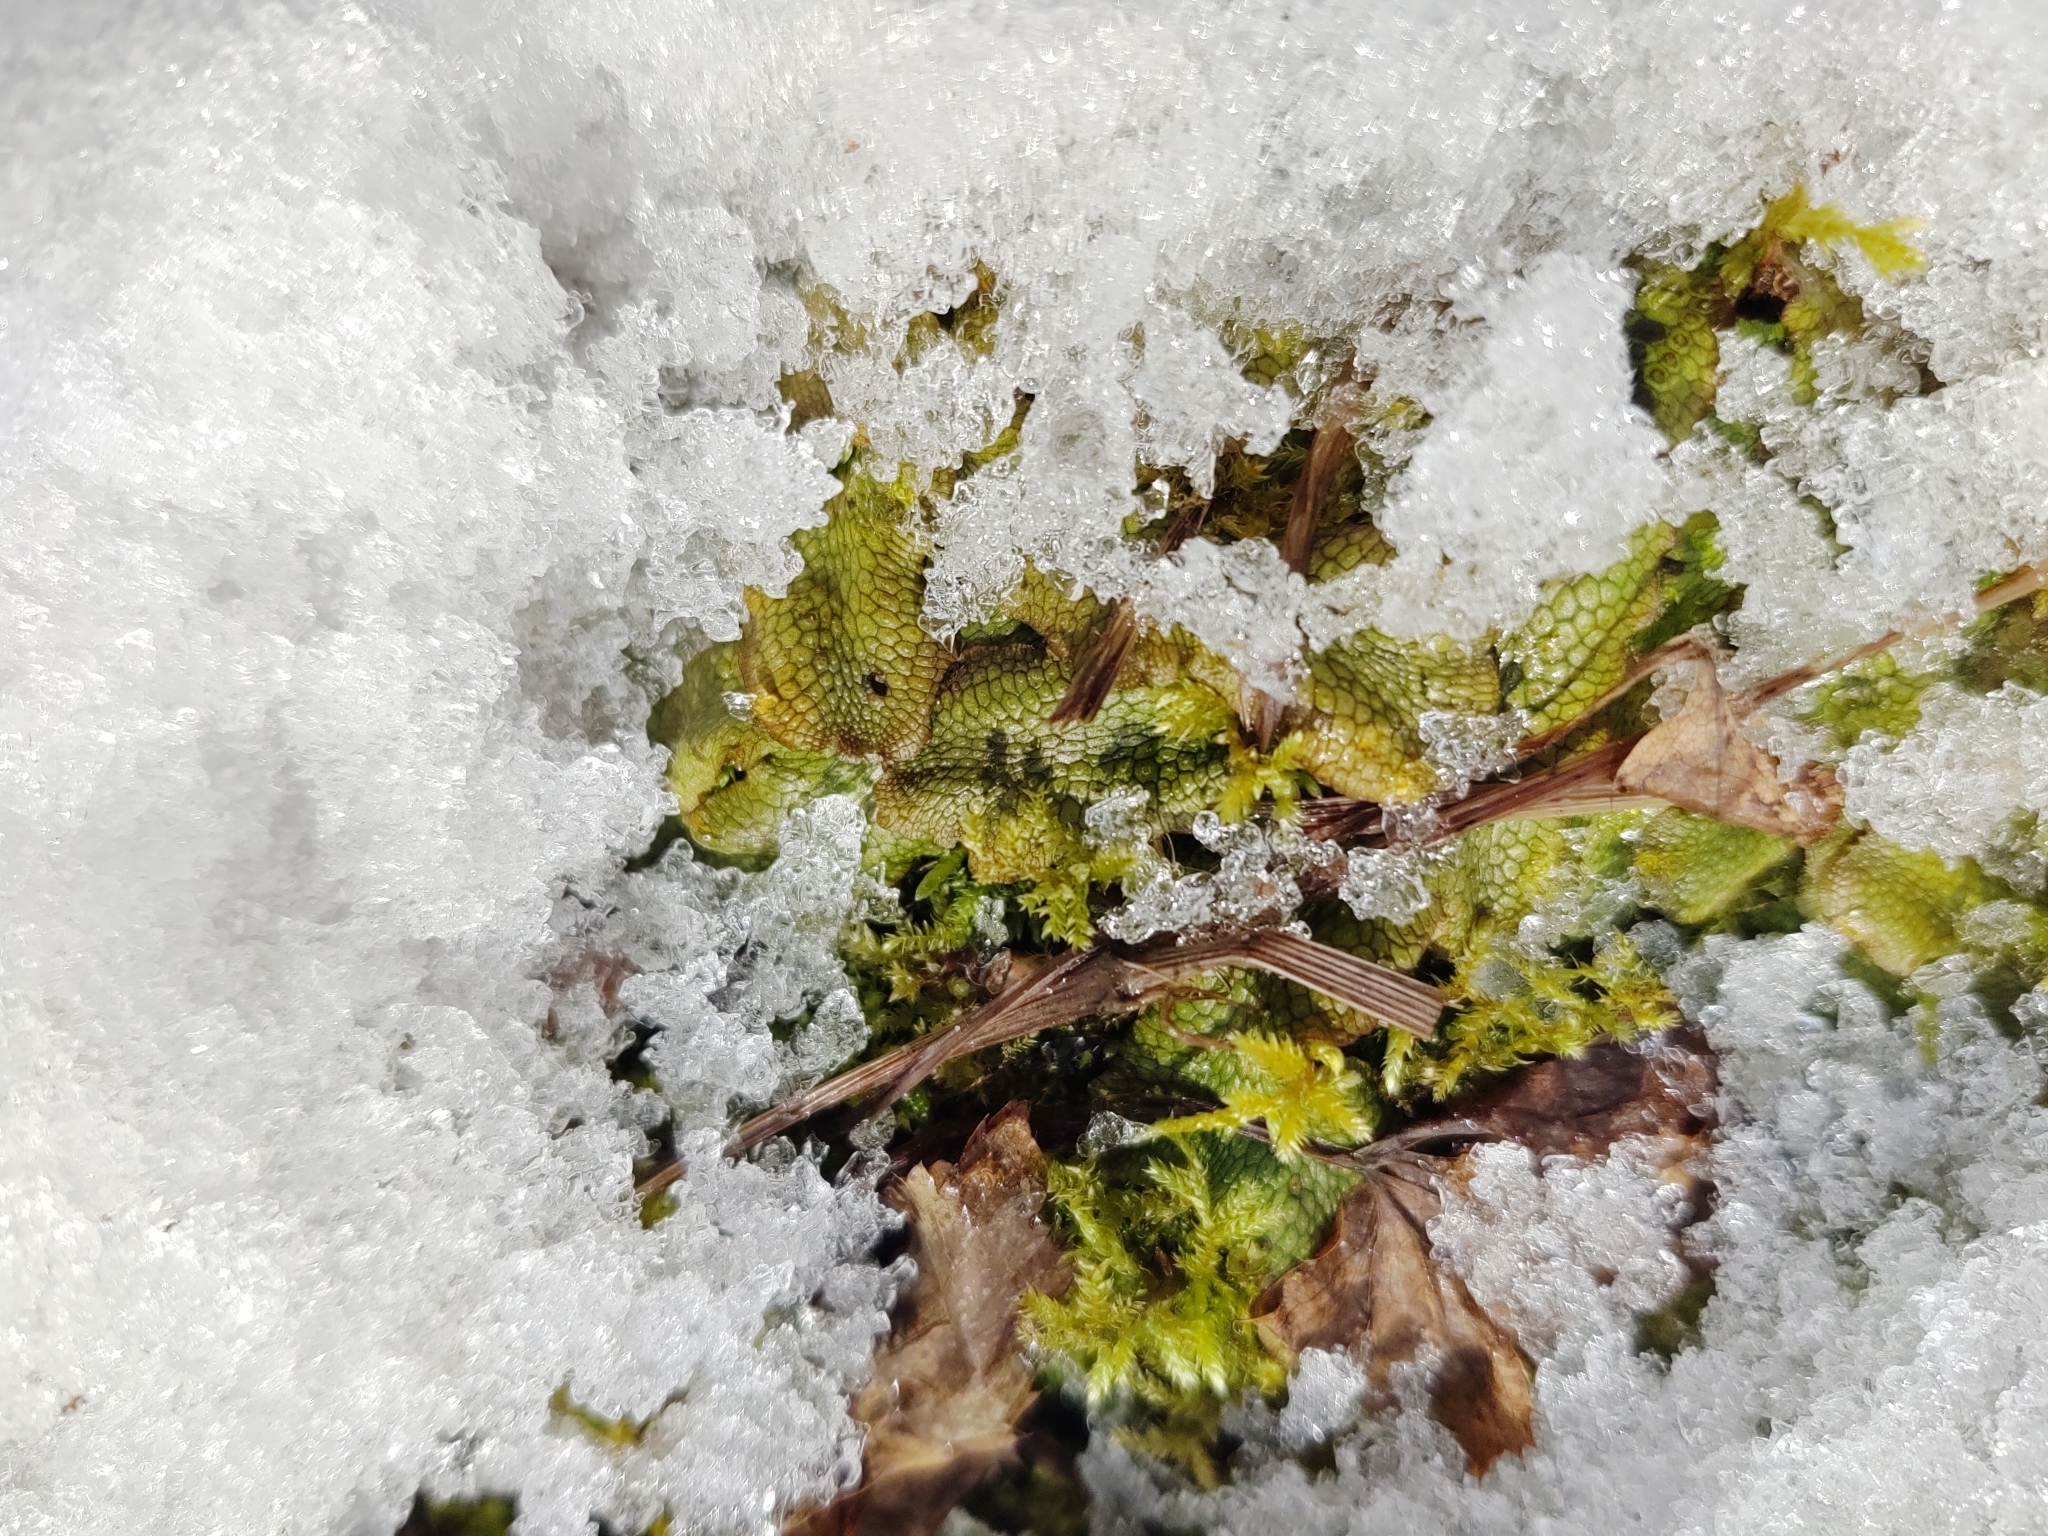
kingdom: Plantae
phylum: Marchantiophyta
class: Marchantiopsida
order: Marchantiales
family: Conocephalaceae
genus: Conocephalum
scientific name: Conocephalum salebrosum
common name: Cat-tongue liverwort
